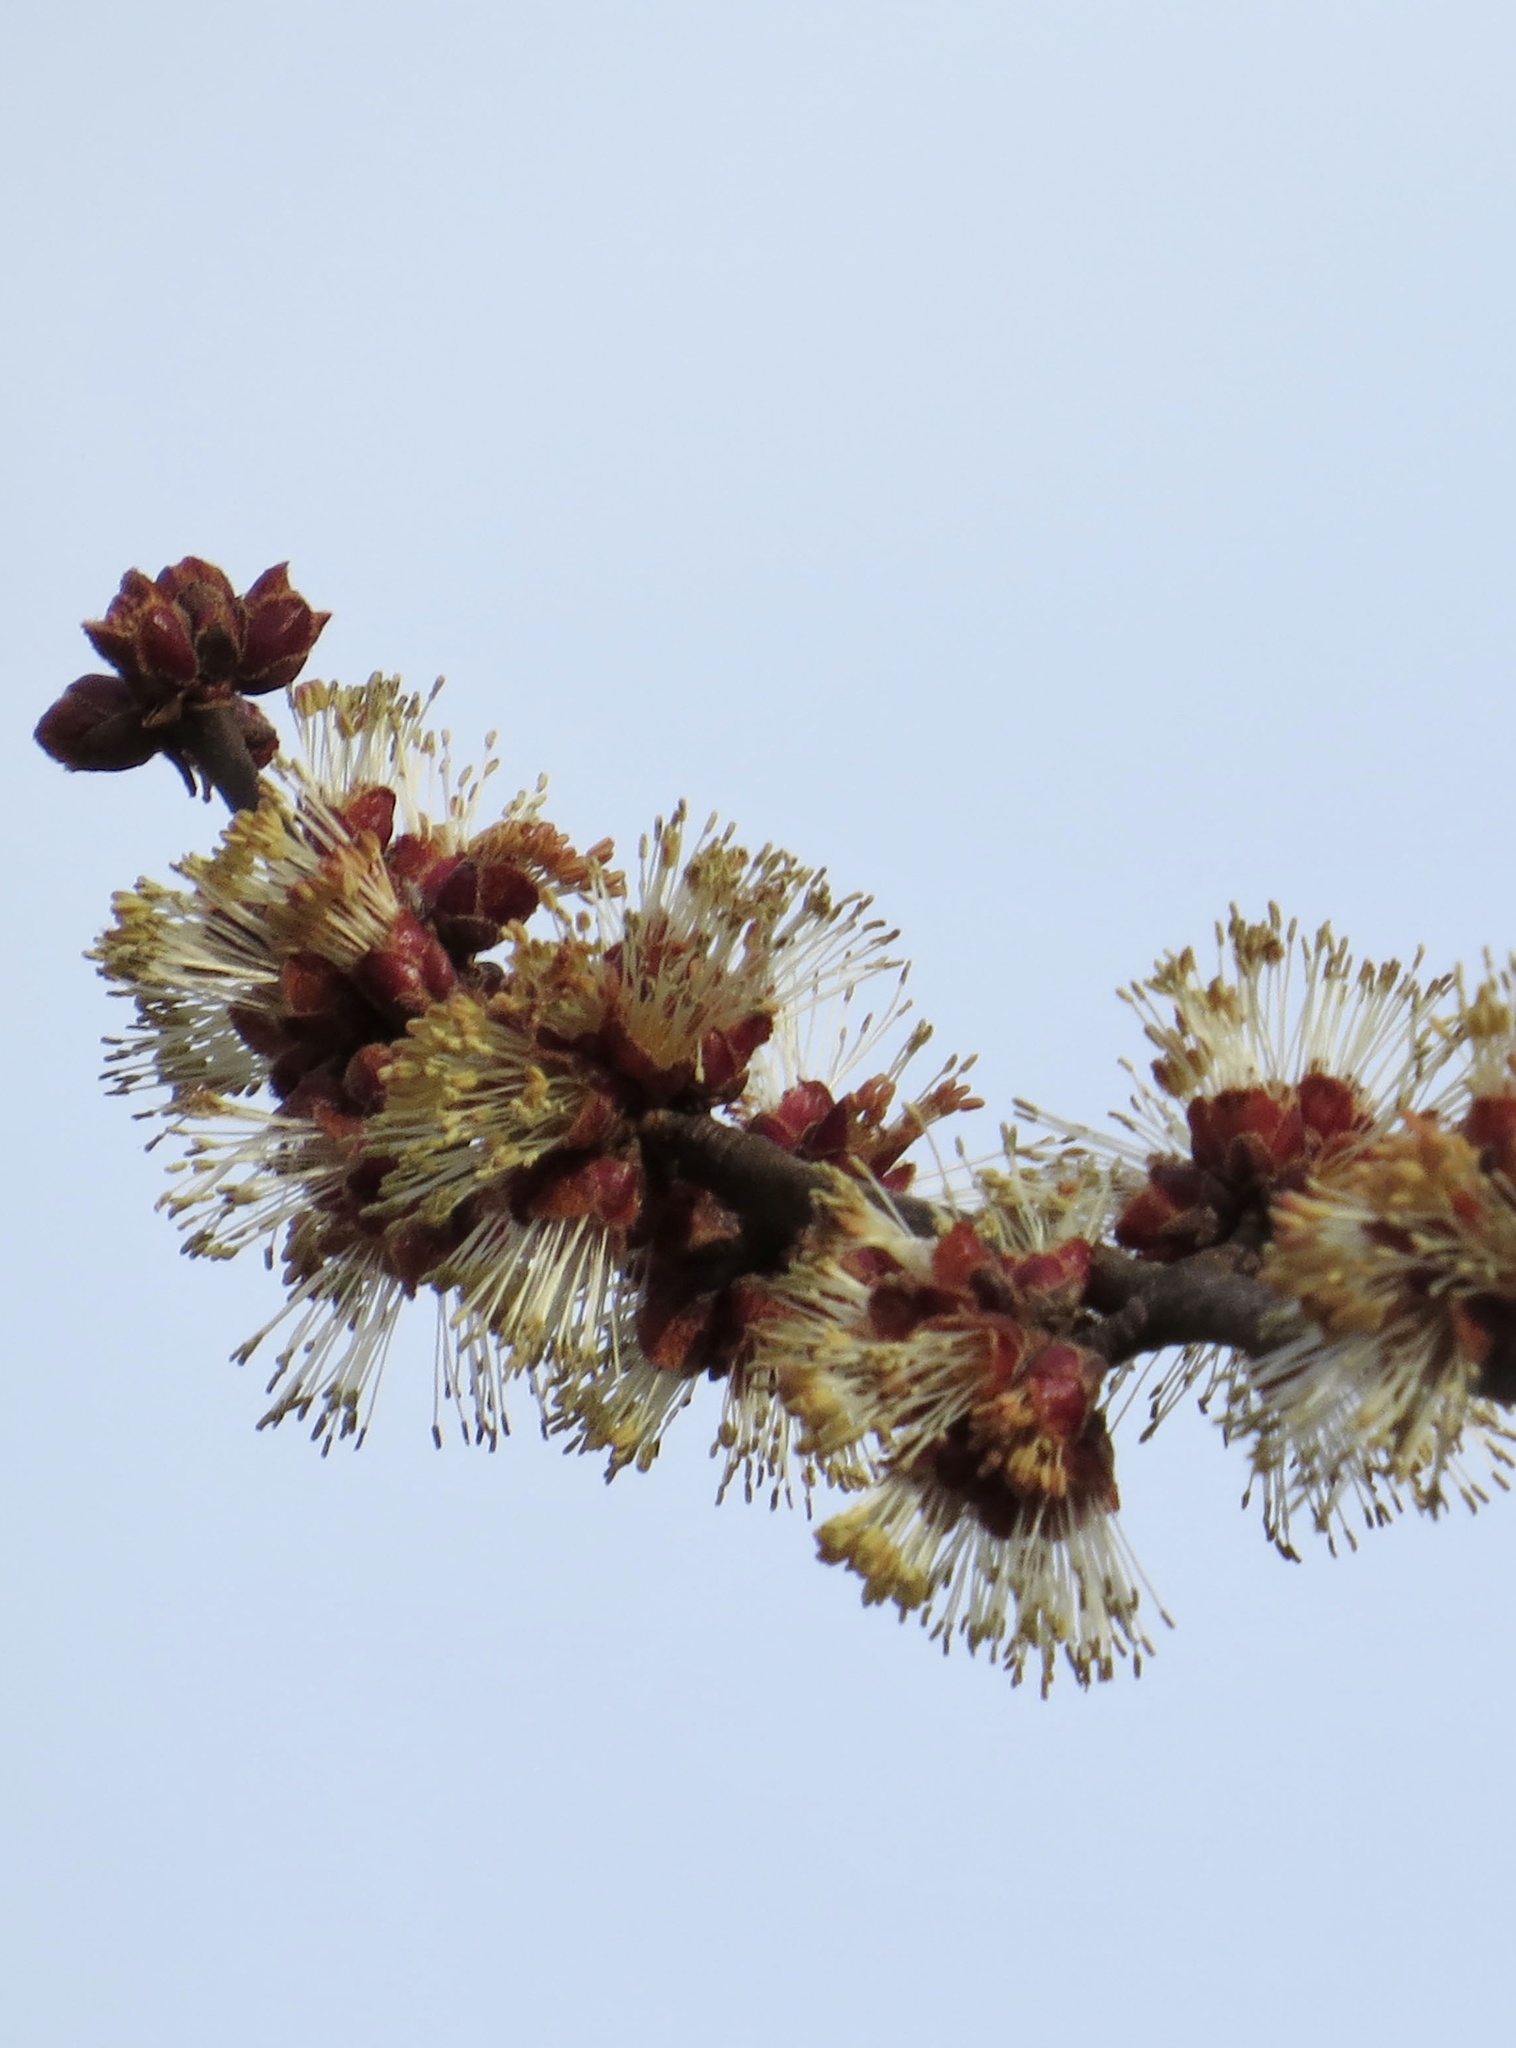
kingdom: Plantae
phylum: Tracheophyta
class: Magnoliopsida
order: Sapindales
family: Sapindaceae
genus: Acer
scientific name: Acer saccharinum
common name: Silver maple
